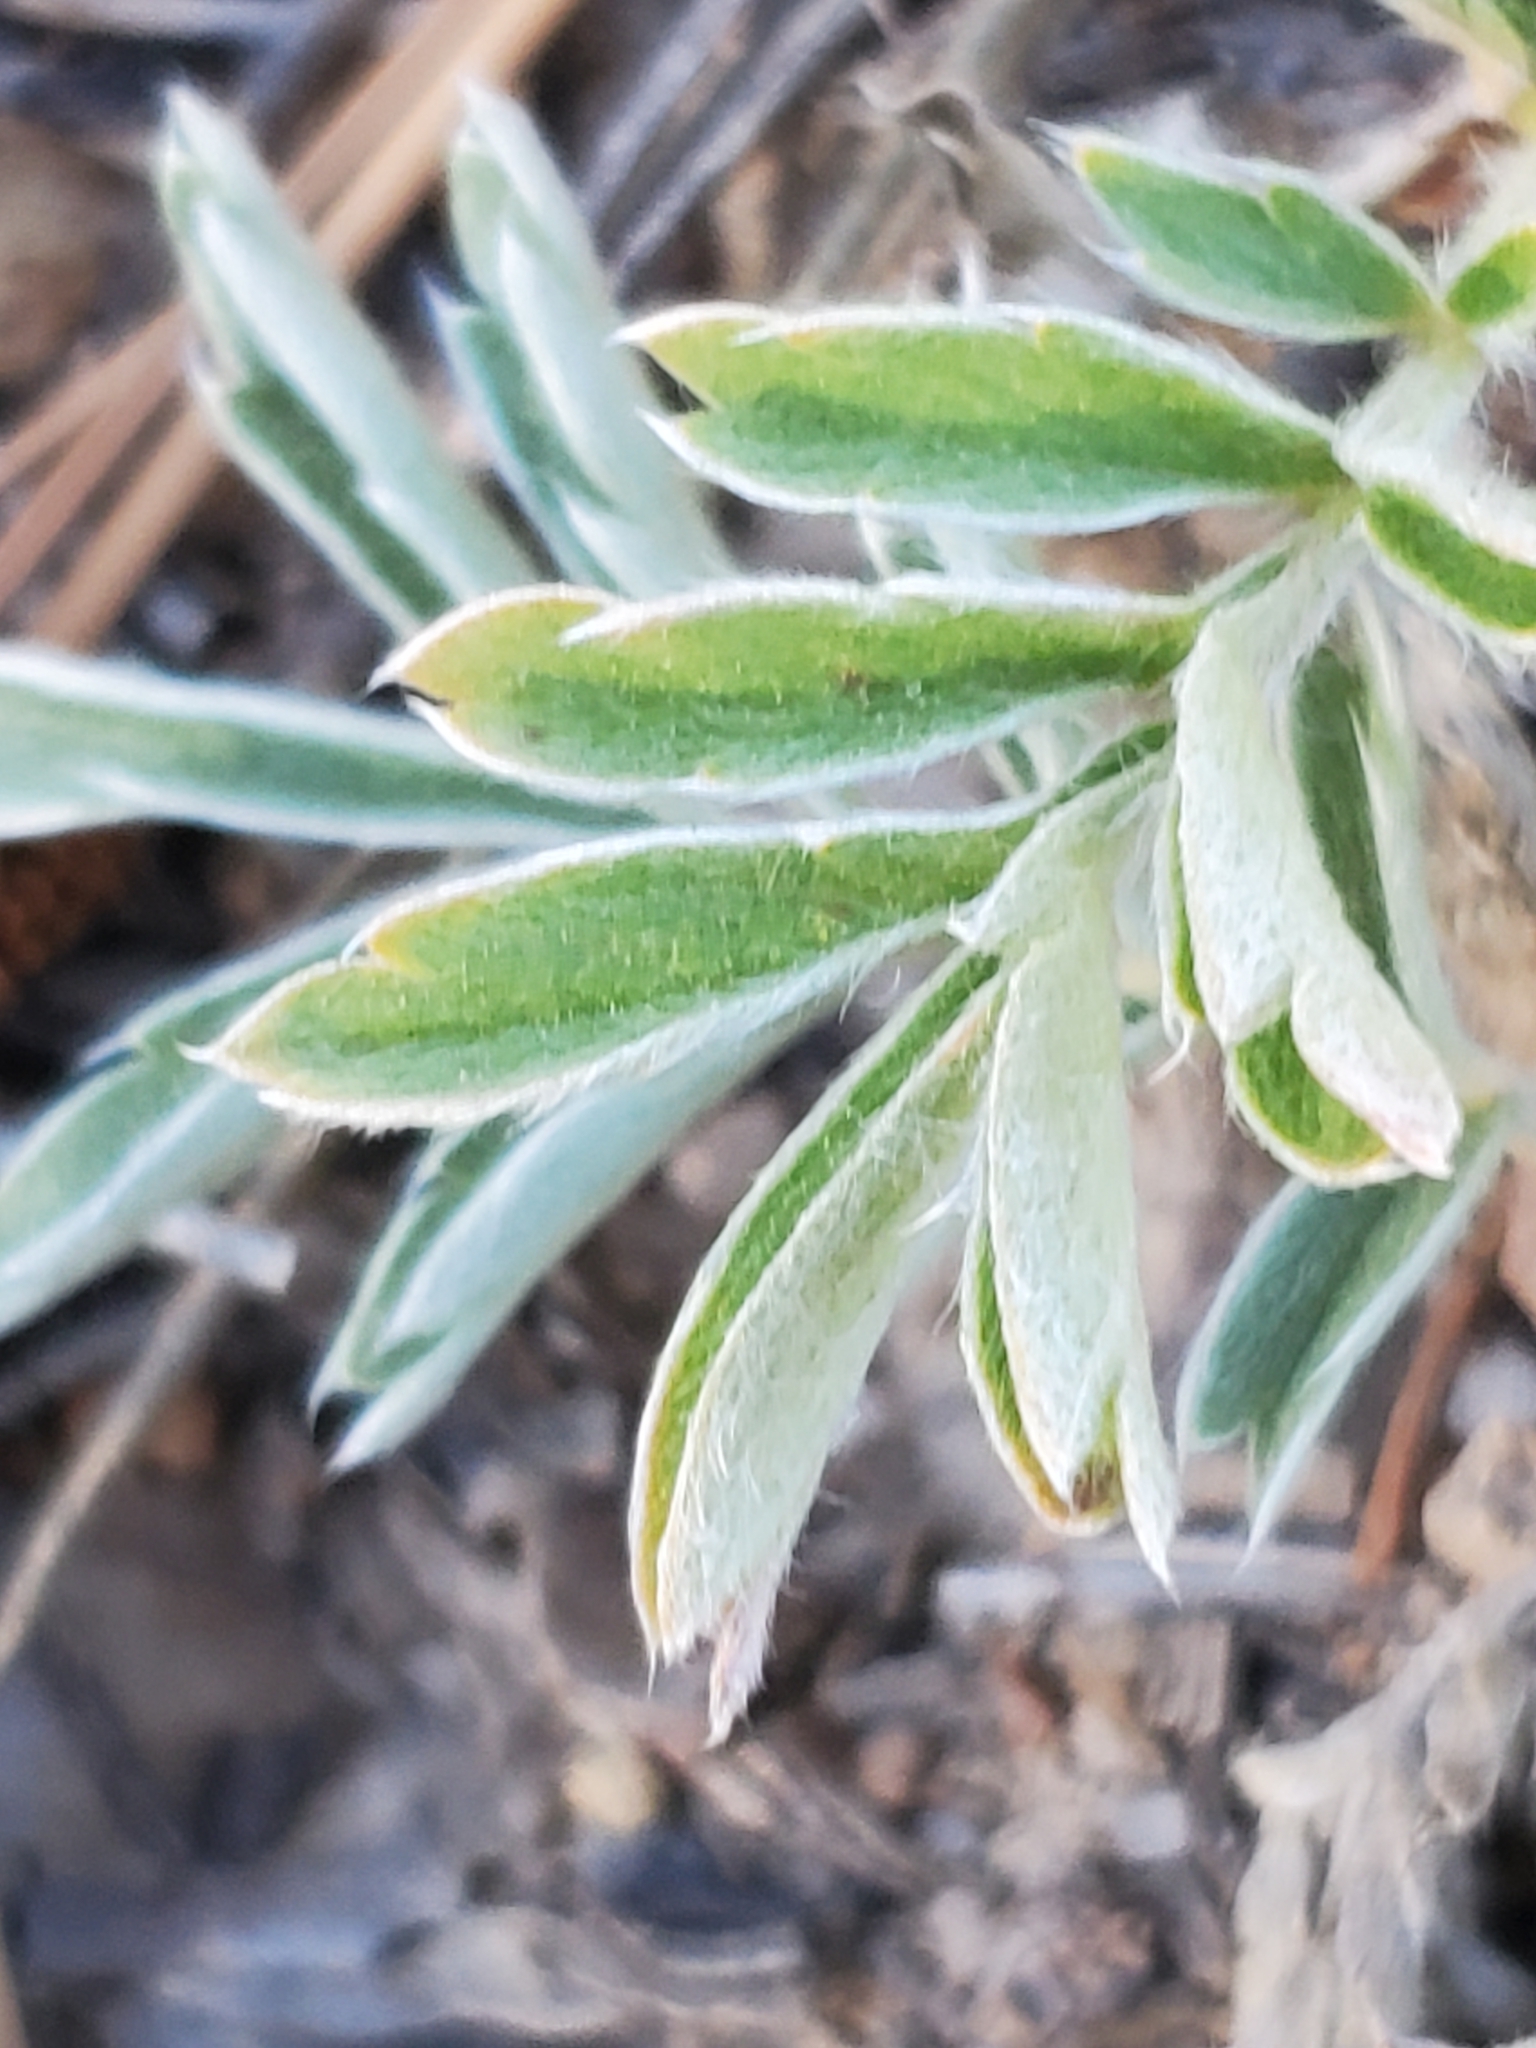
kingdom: Plantae
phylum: Tracheophyta
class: Magnoliopsida
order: Rosales
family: Rosaceae
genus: Potentilla
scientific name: Potentilla crinita
